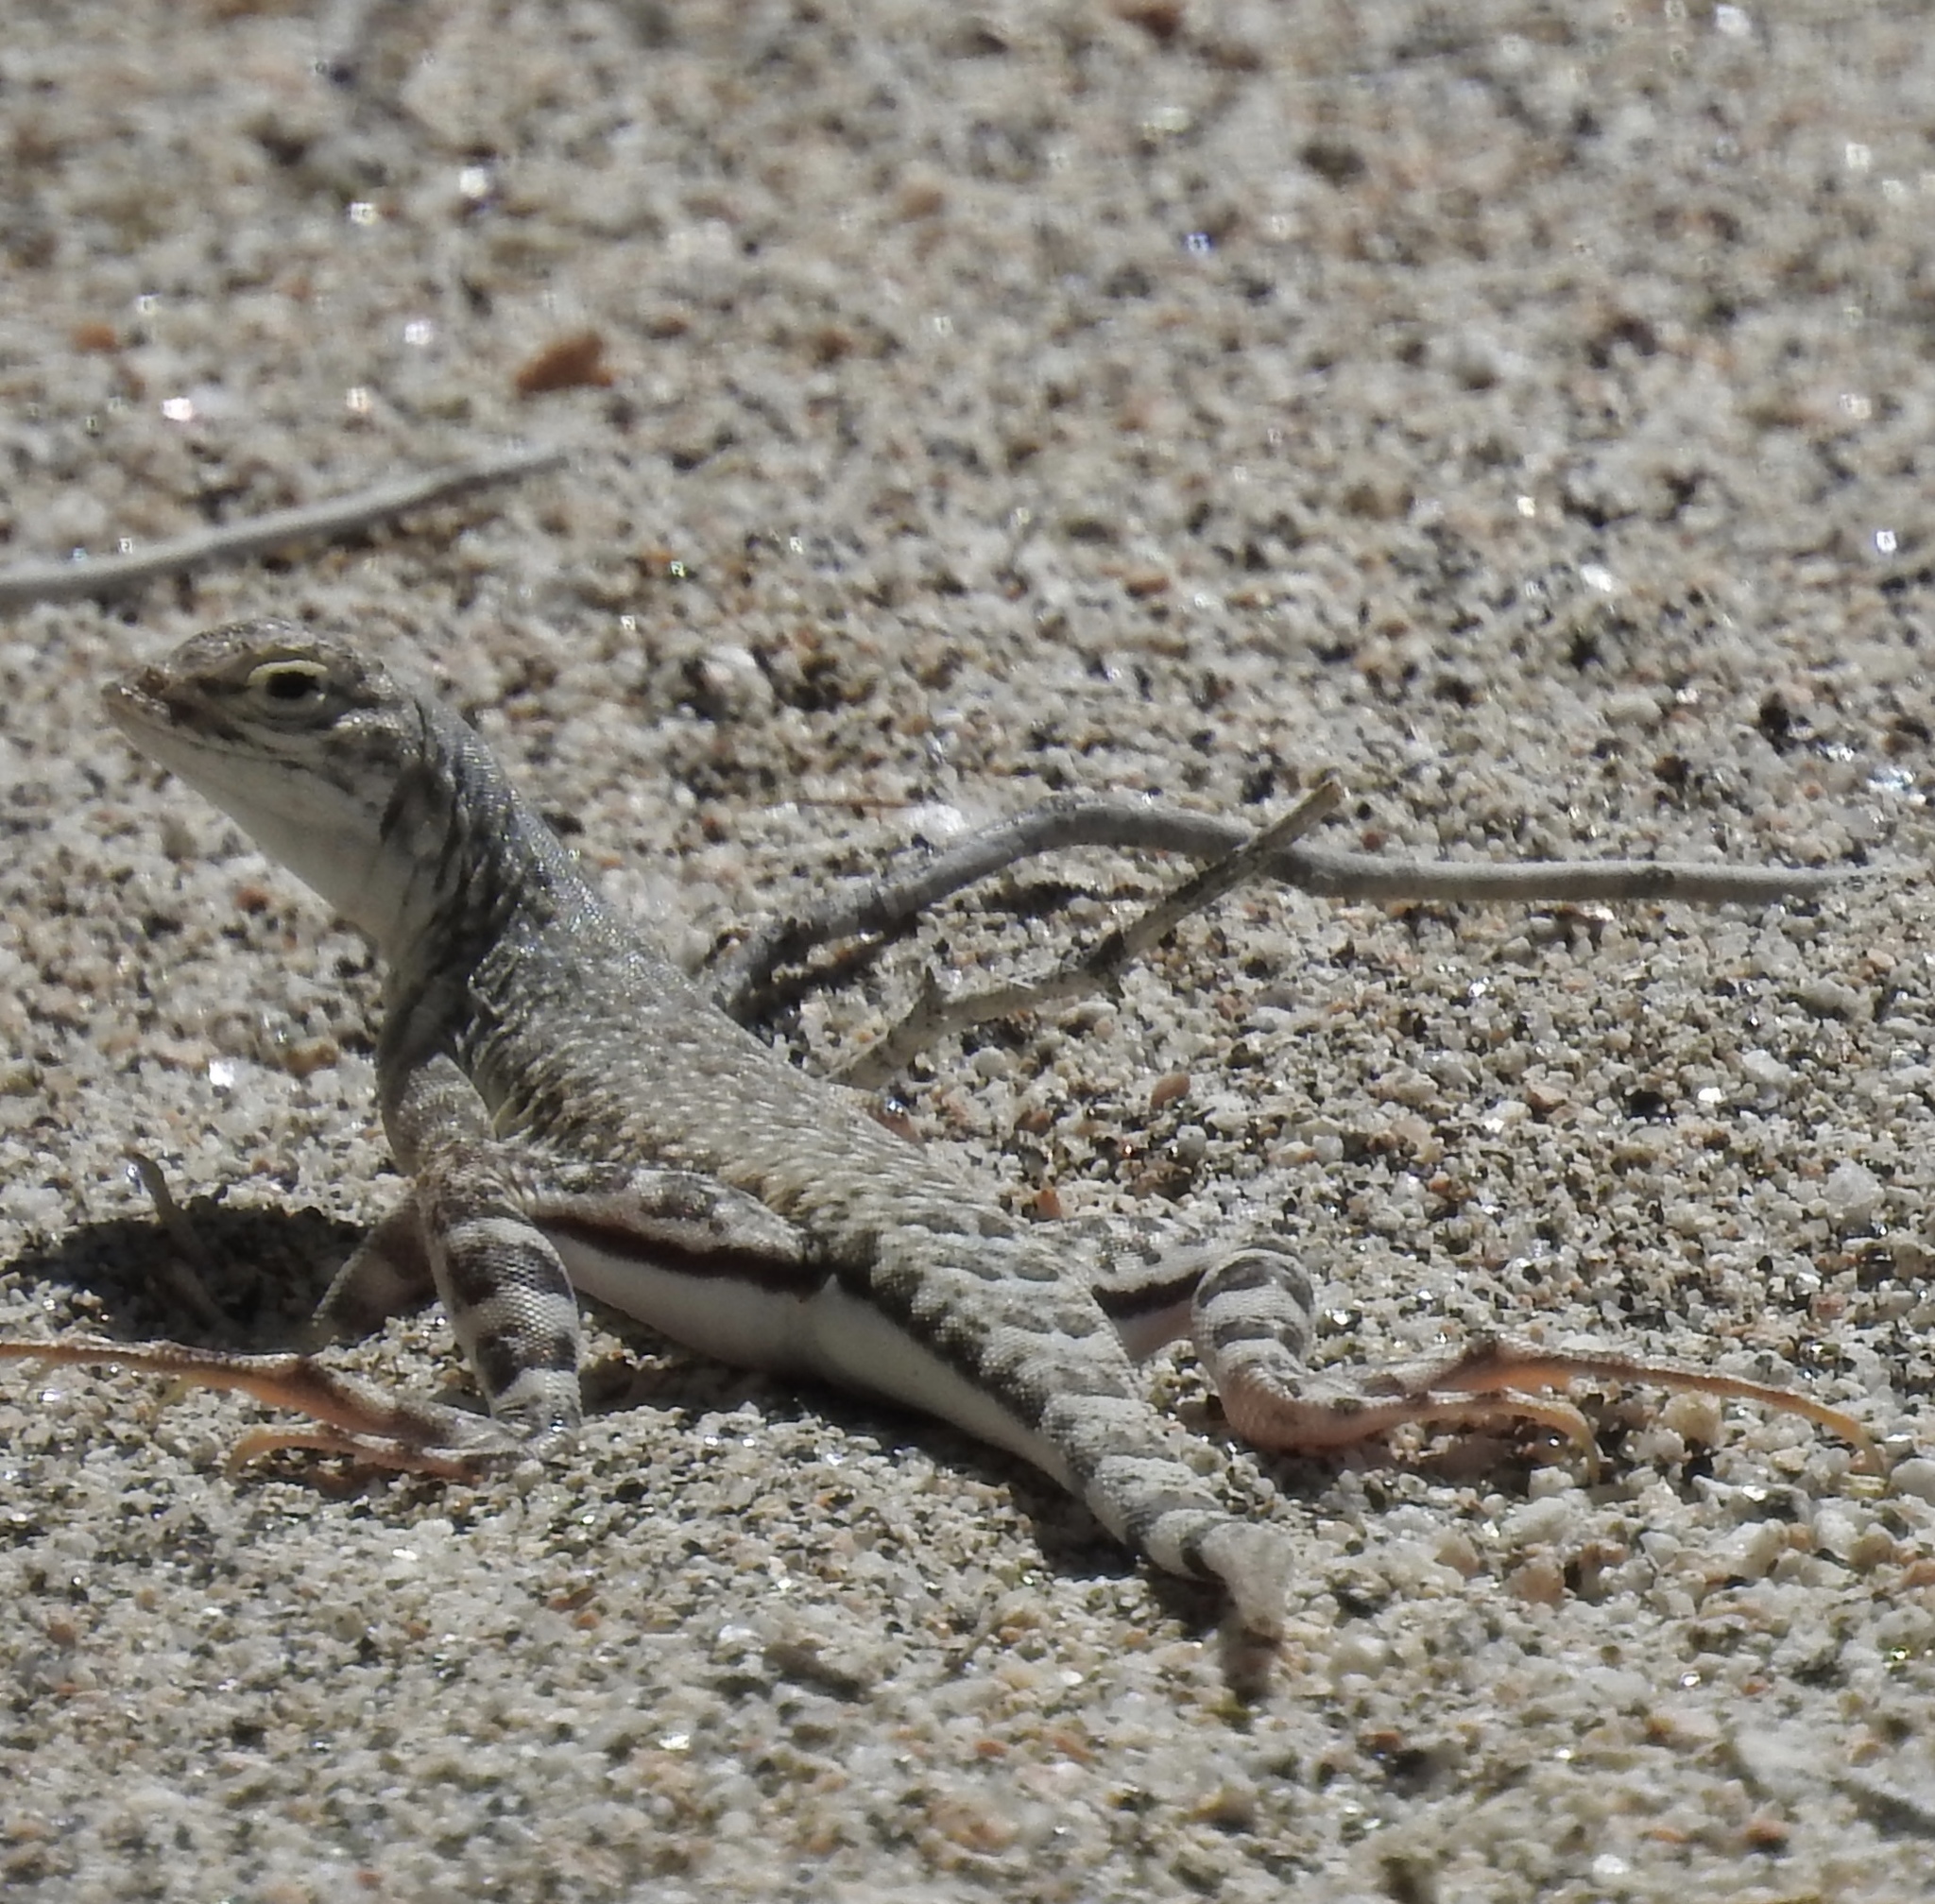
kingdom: Animalia
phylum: Chordata
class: Squamata
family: Phrynosomatidae
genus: Callisaurus
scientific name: Callisaurus draconoides
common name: Zebra-tailed lizard
